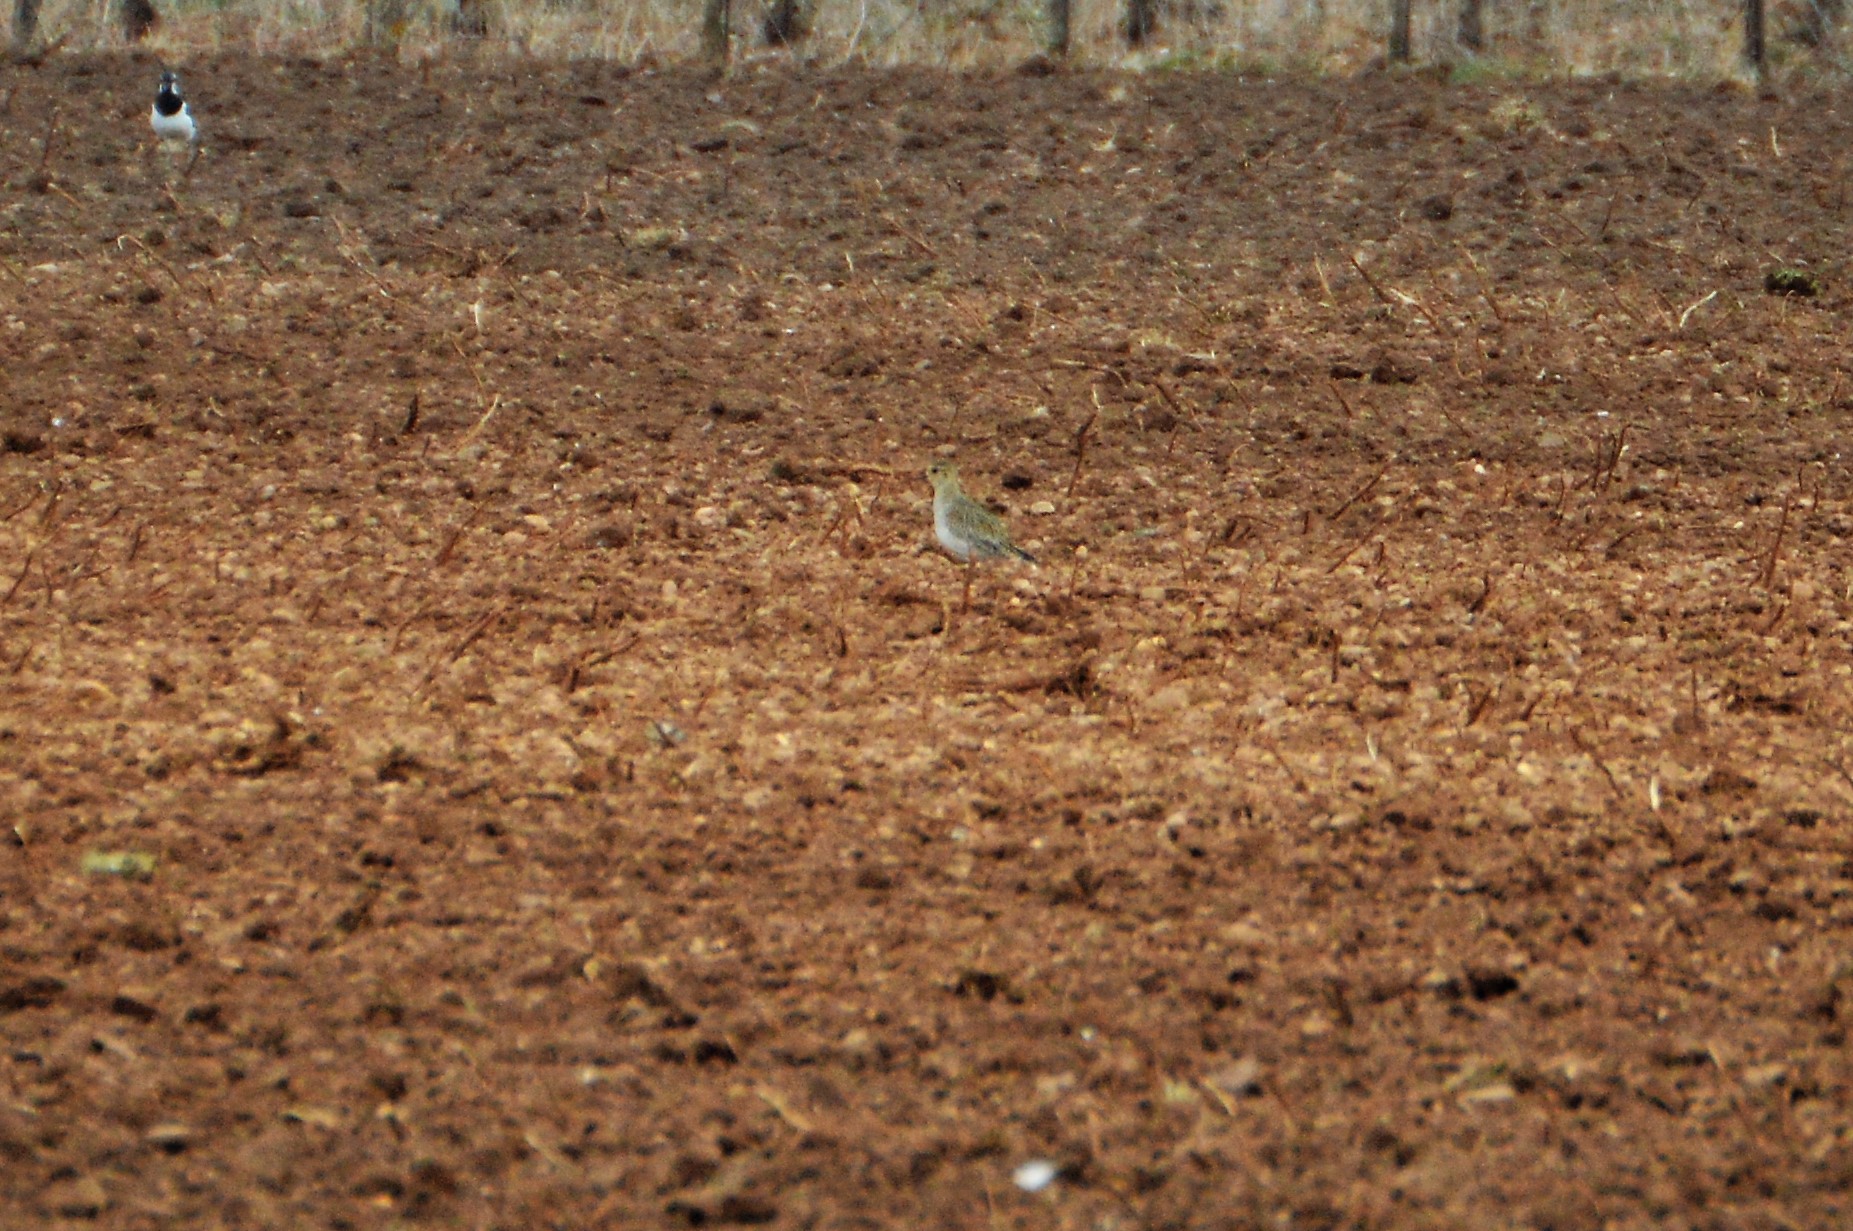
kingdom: Animalia
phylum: Chordata
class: Aves
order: Charadriiformes
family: Charadriidae
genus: Pluvialis
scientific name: Pluvialis apricaria
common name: European golden plover
